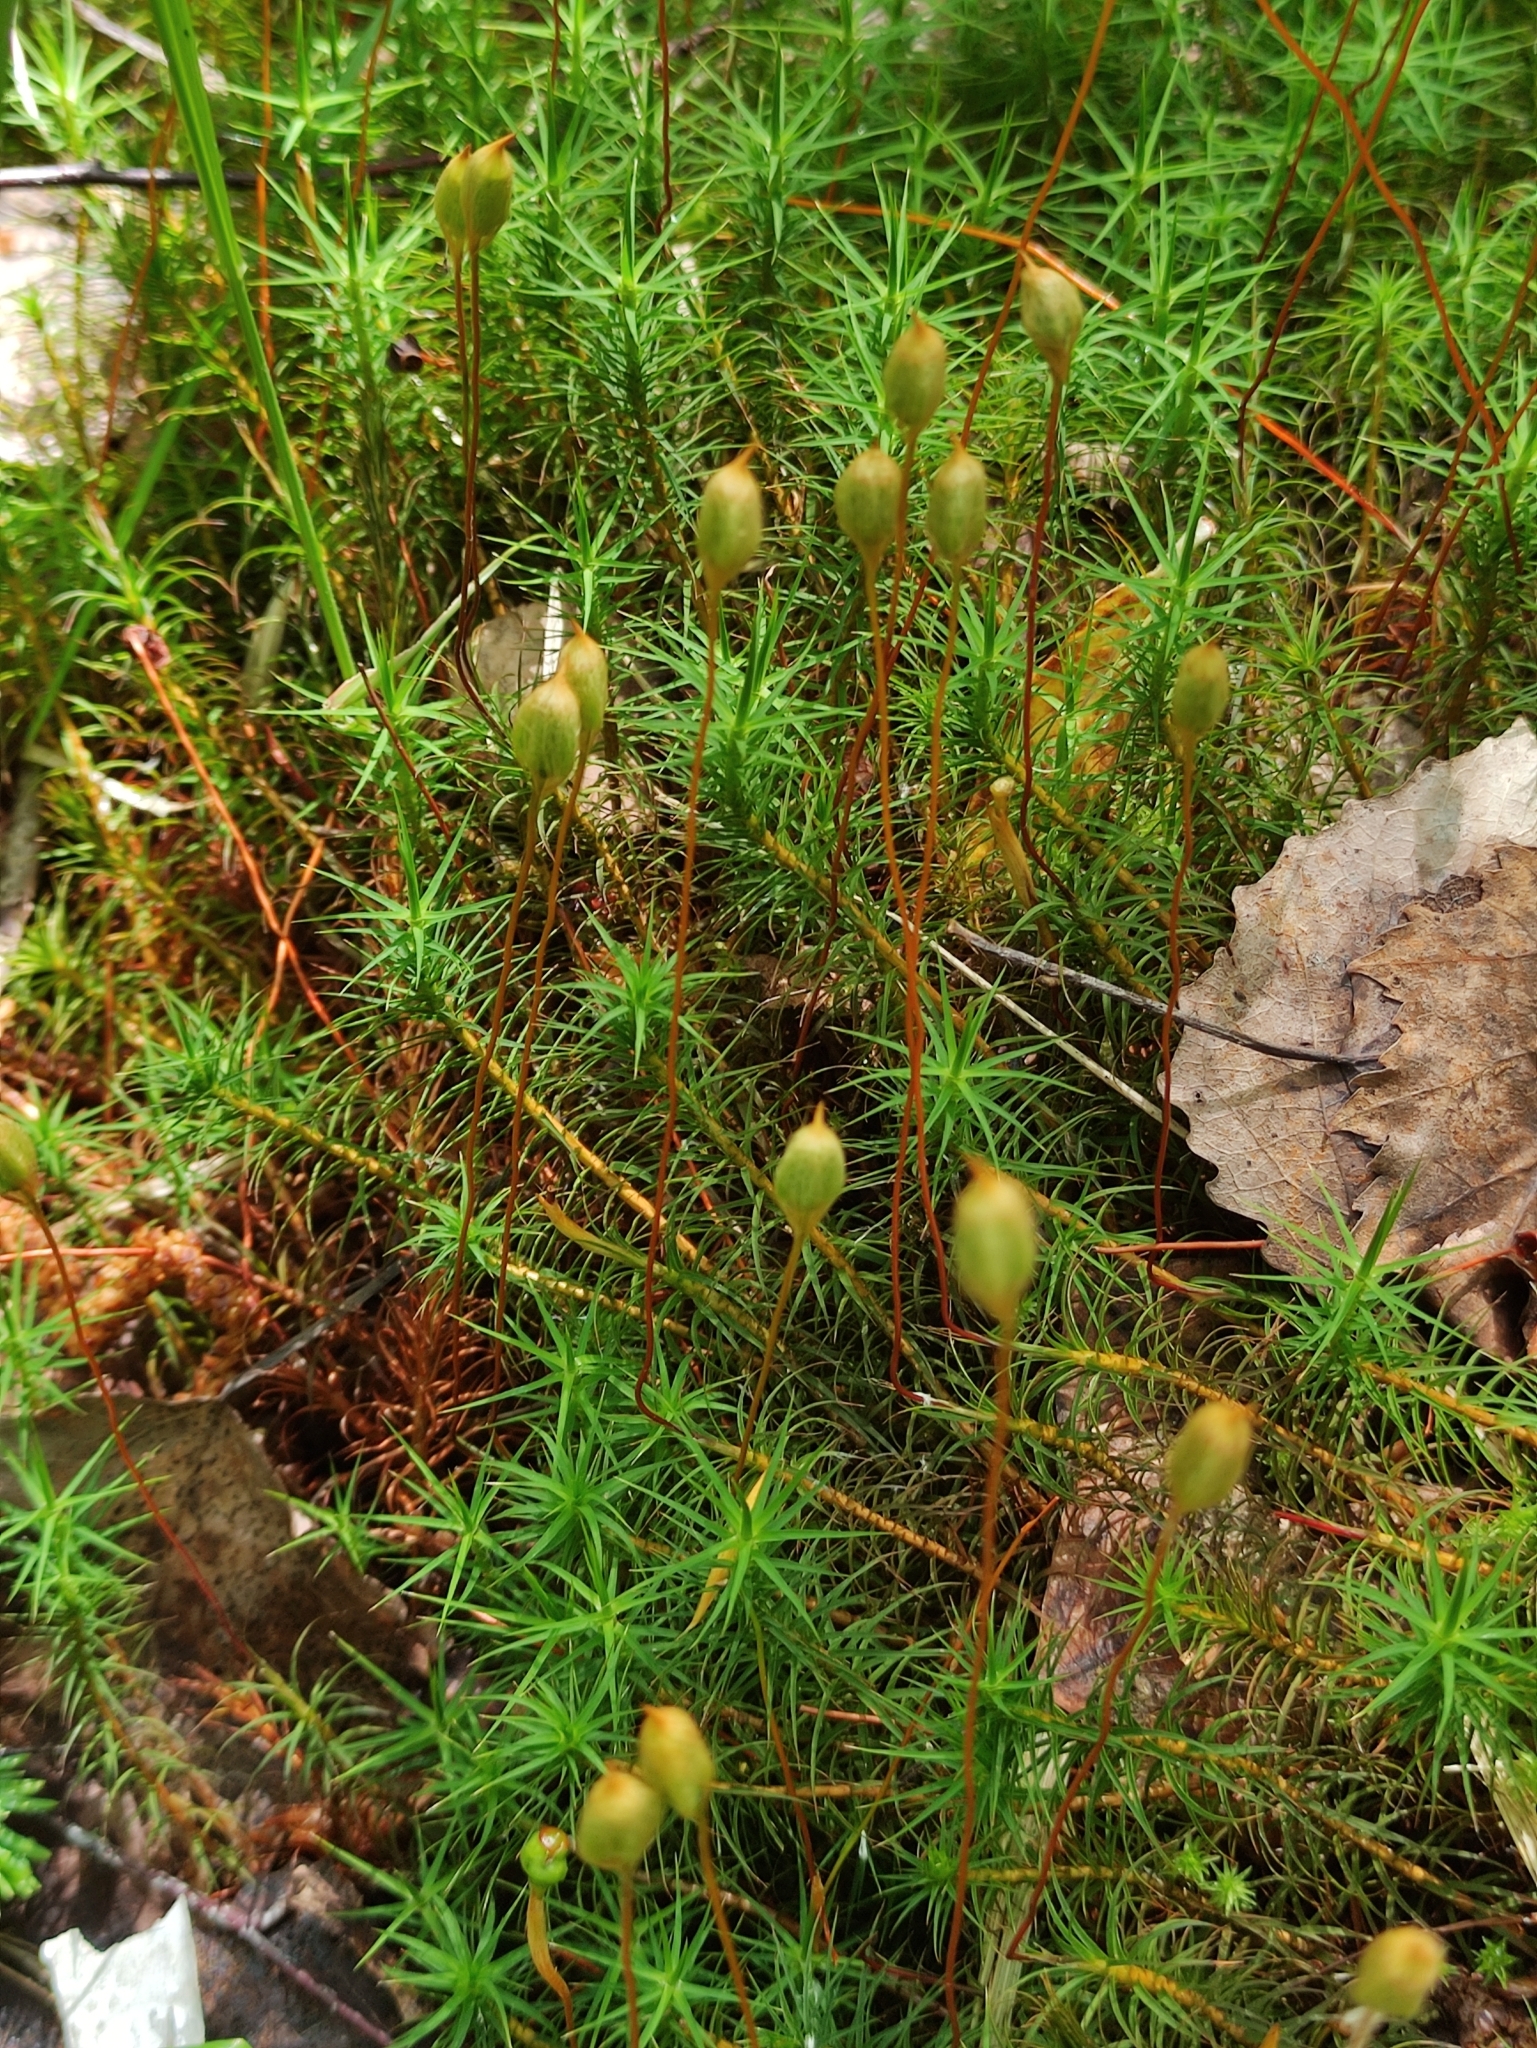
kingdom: Plantae
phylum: Bryophyta
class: Polytrichopsida
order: Polytrichales
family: Polytrichaceae
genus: Polytrichum
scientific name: Polytrichum commune
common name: Common haircap
